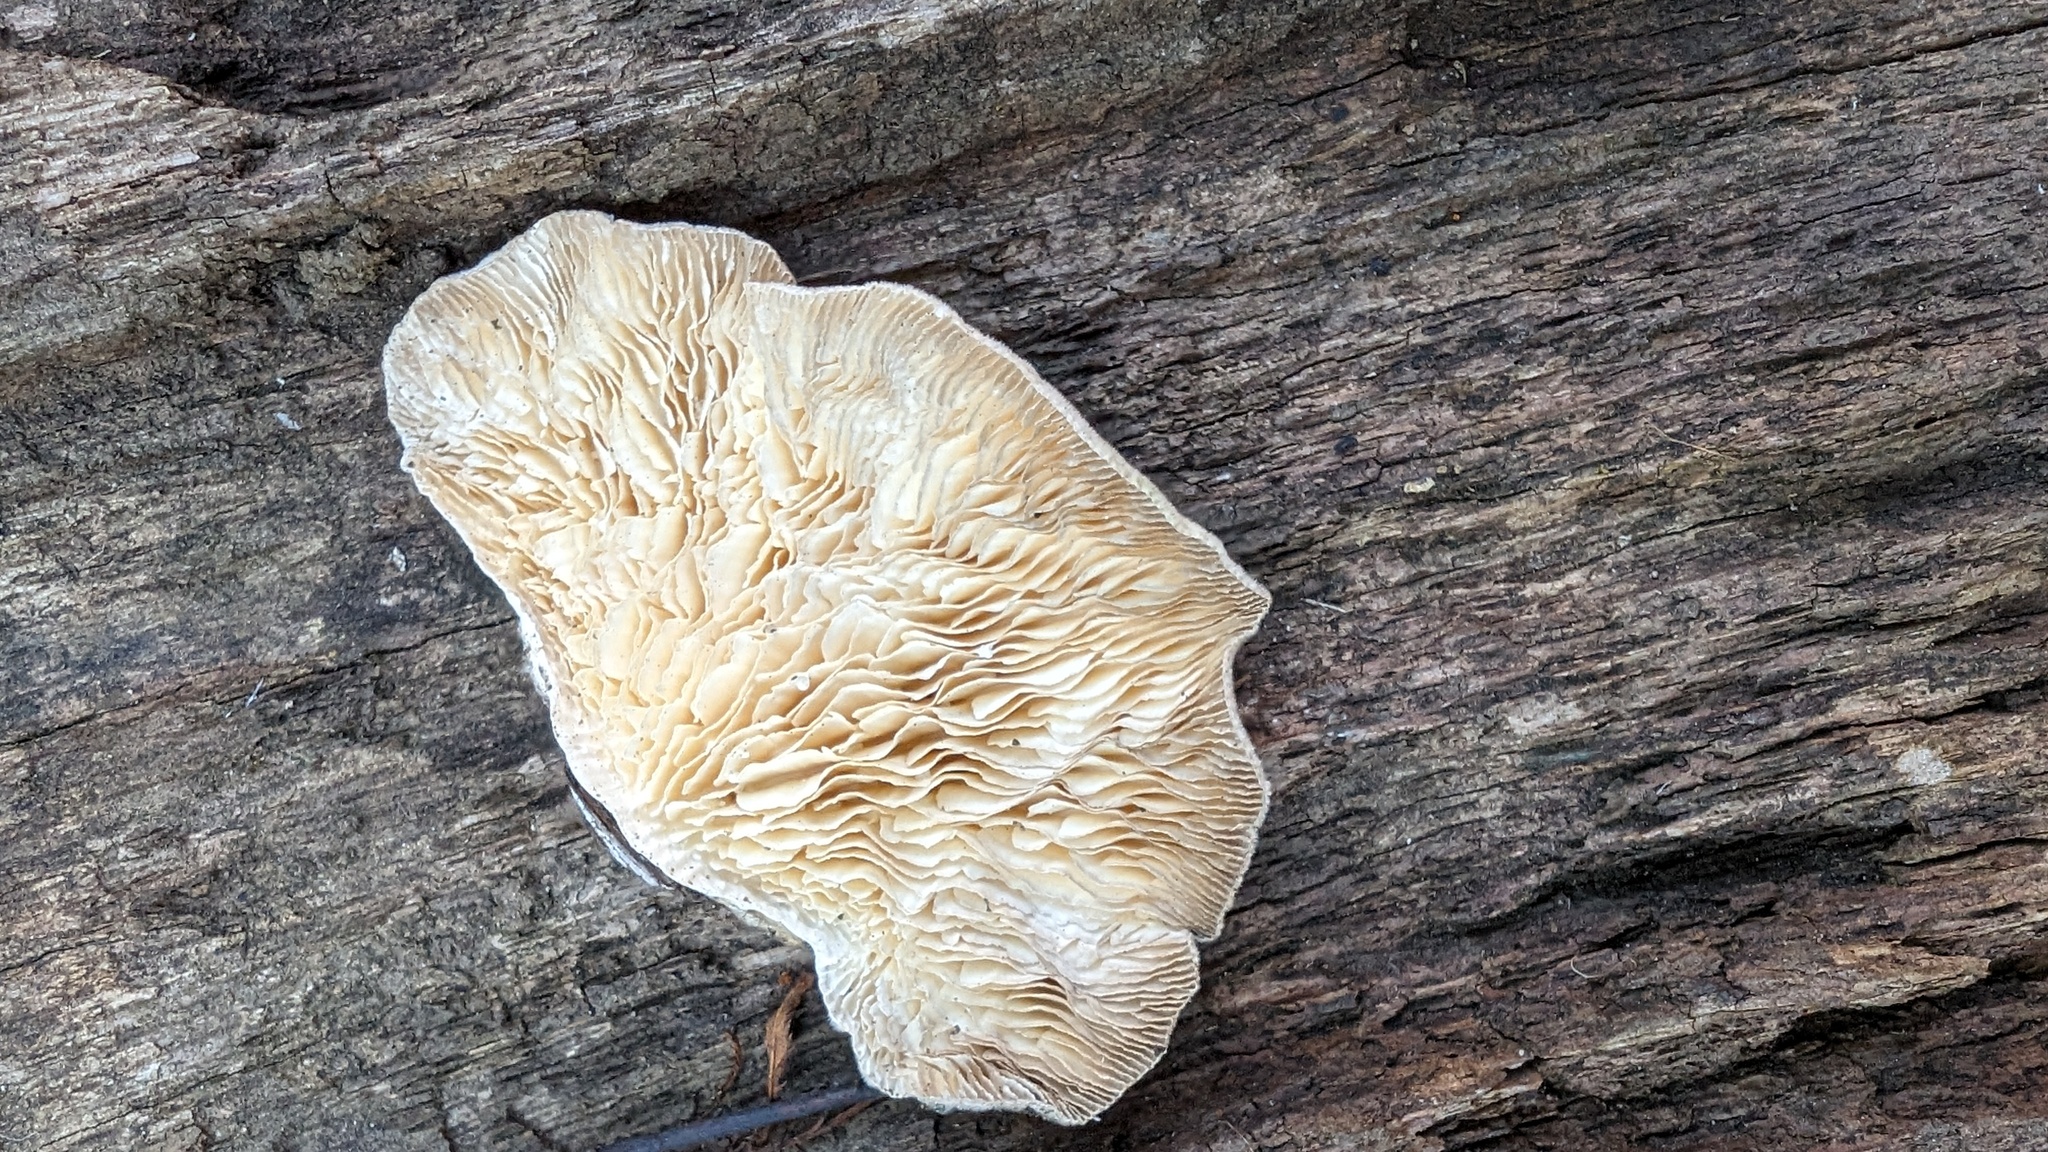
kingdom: Fungi
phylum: Basidiomycota
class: Agaricomycetes
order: Polyporales
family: Polyporaceae
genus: Lenzites
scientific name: Lenzites betulinus
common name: Birch mazegill
